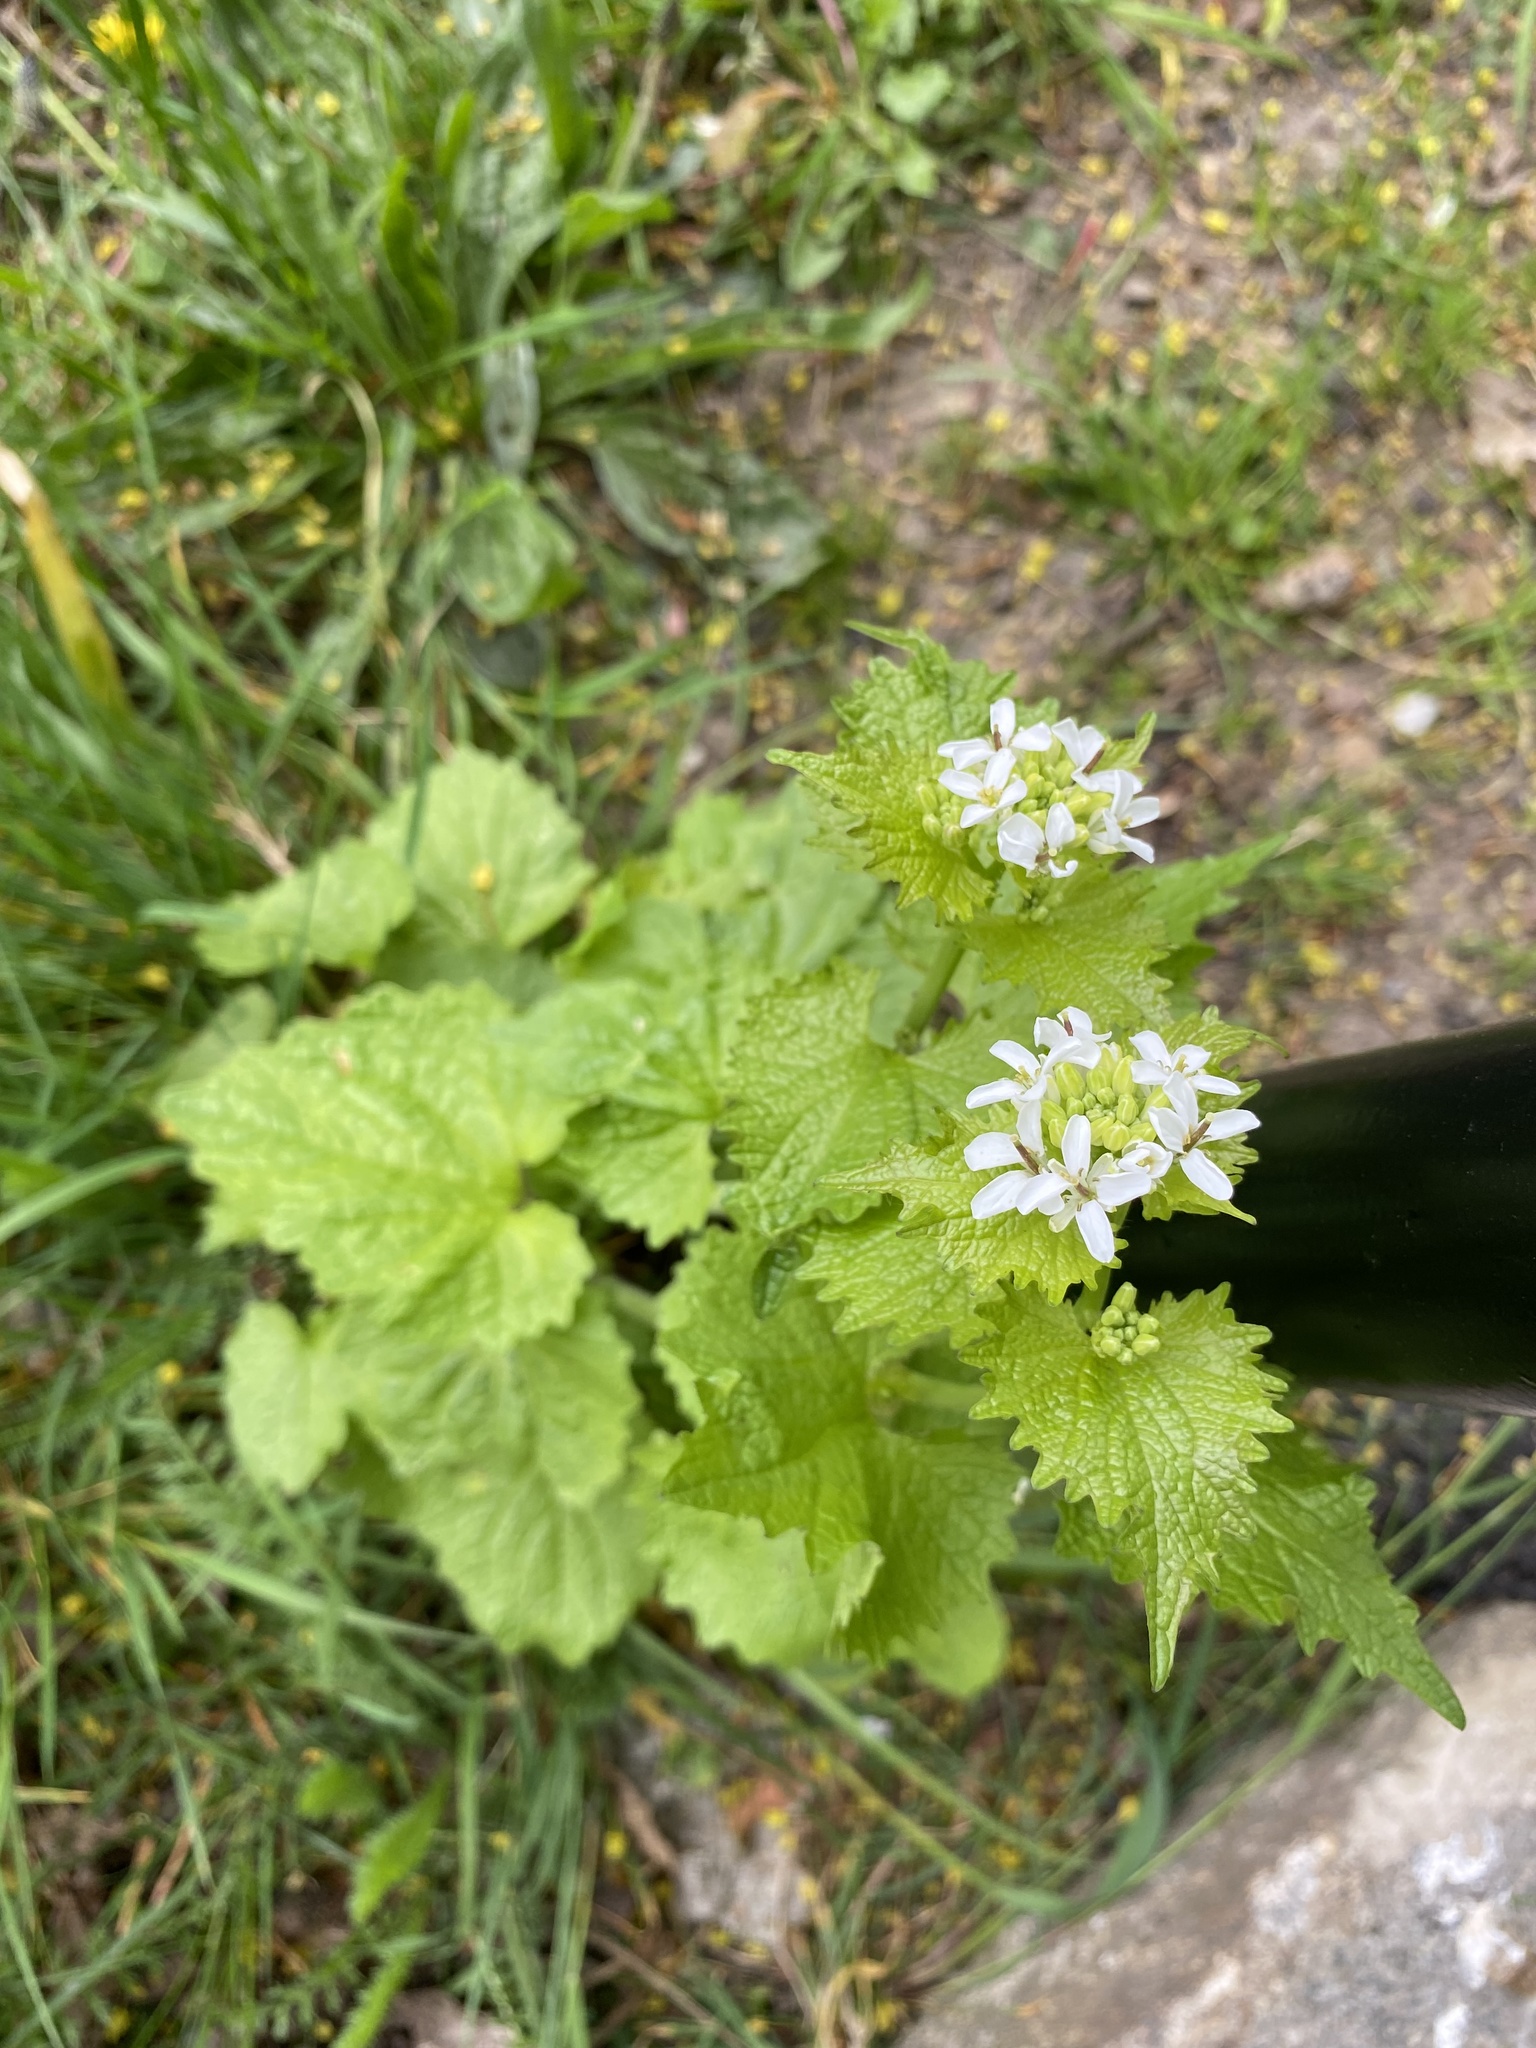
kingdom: Plantae
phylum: Tracheophyta
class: Magnoliopsida
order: Brassicales
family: Brassicaceae
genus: Alliaria
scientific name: Alliaria petiolata
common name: Garlic mustard
